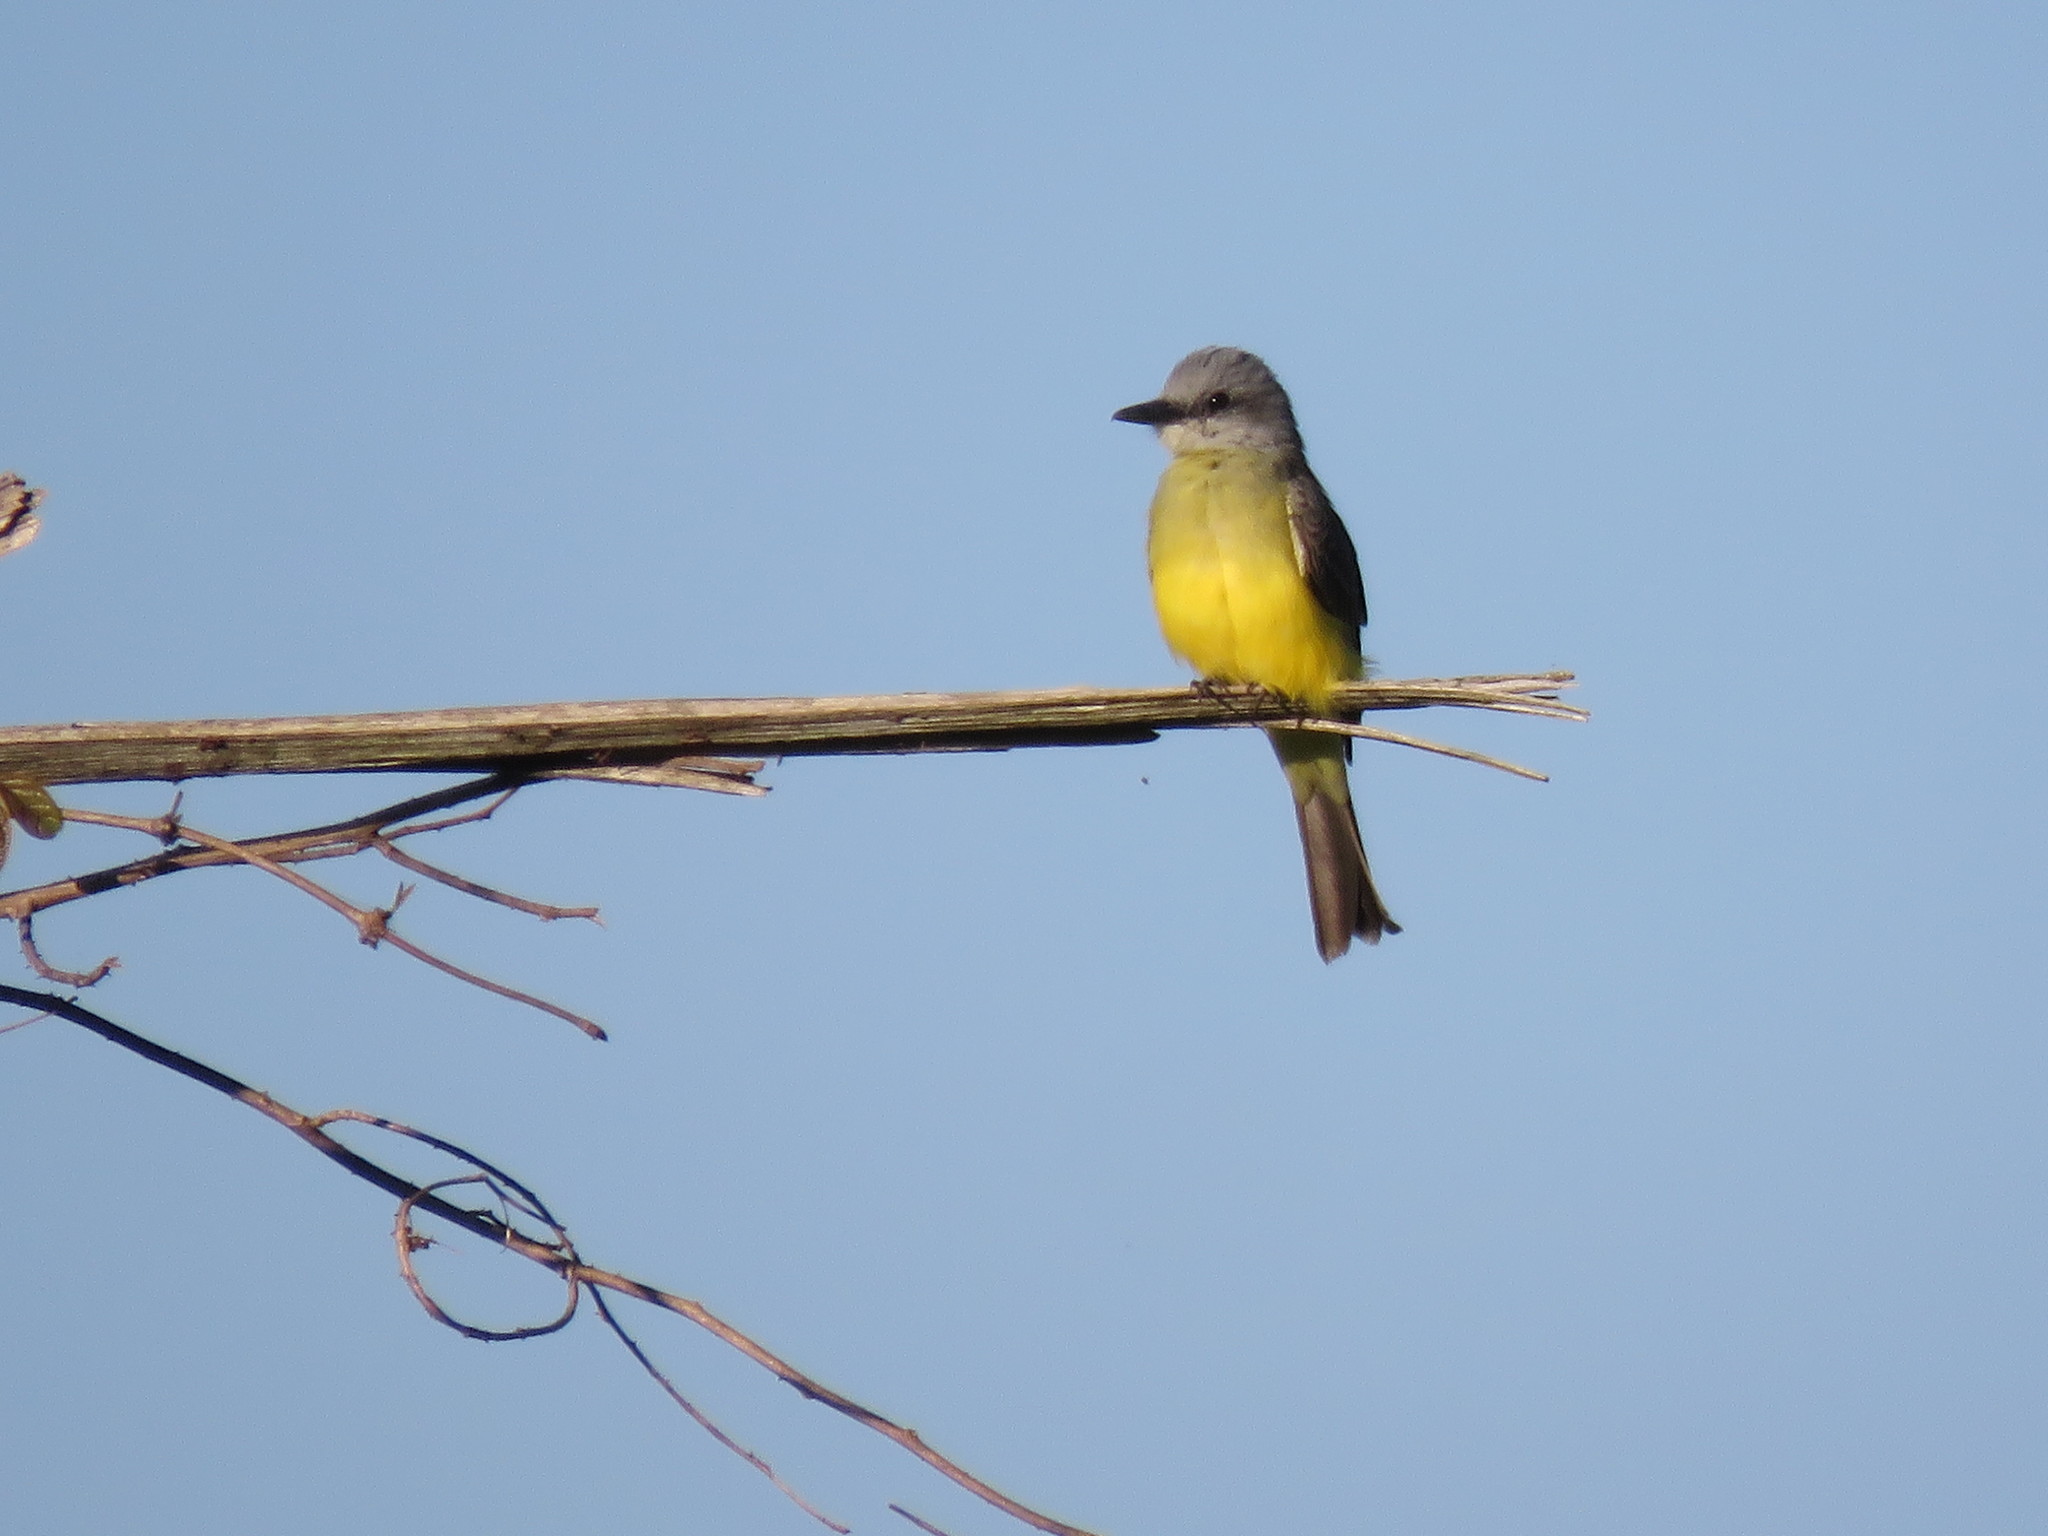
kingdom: Animalia
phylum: Chordata
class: Aves
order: Passeriformes
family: Tyrannidae
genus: Tyrannus
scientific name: Tyrannus melancholicus
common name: Tropical kingbird
